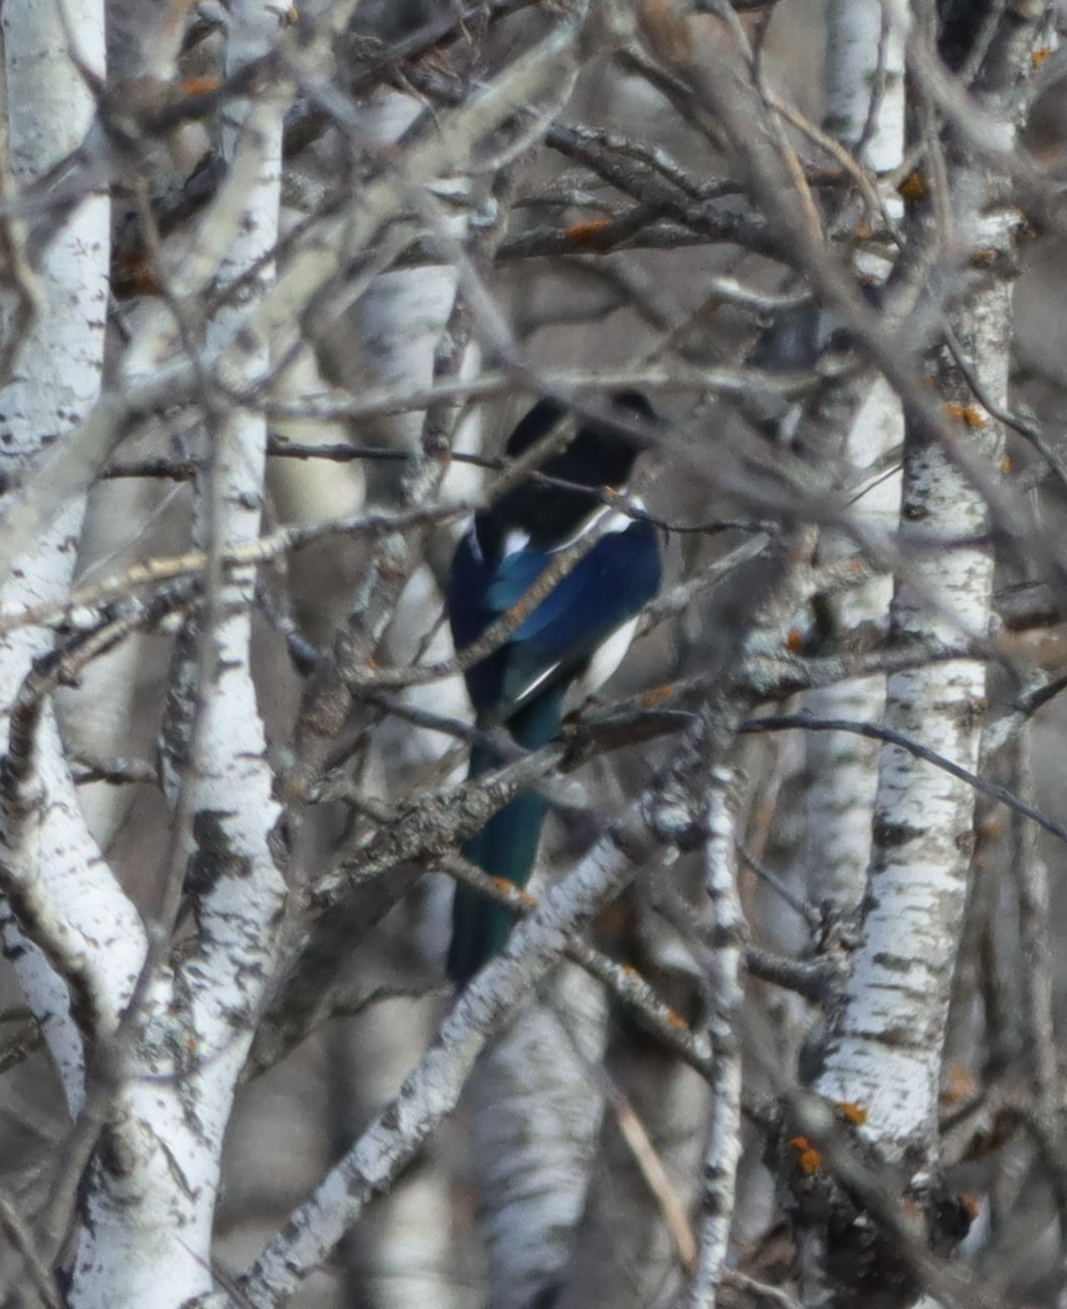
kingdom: Animalia
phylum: Chordata
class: Aves
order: Passeriformes
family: Corvidae
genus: Pica
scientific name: Pica hudsonia
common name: Black-billed magpie
